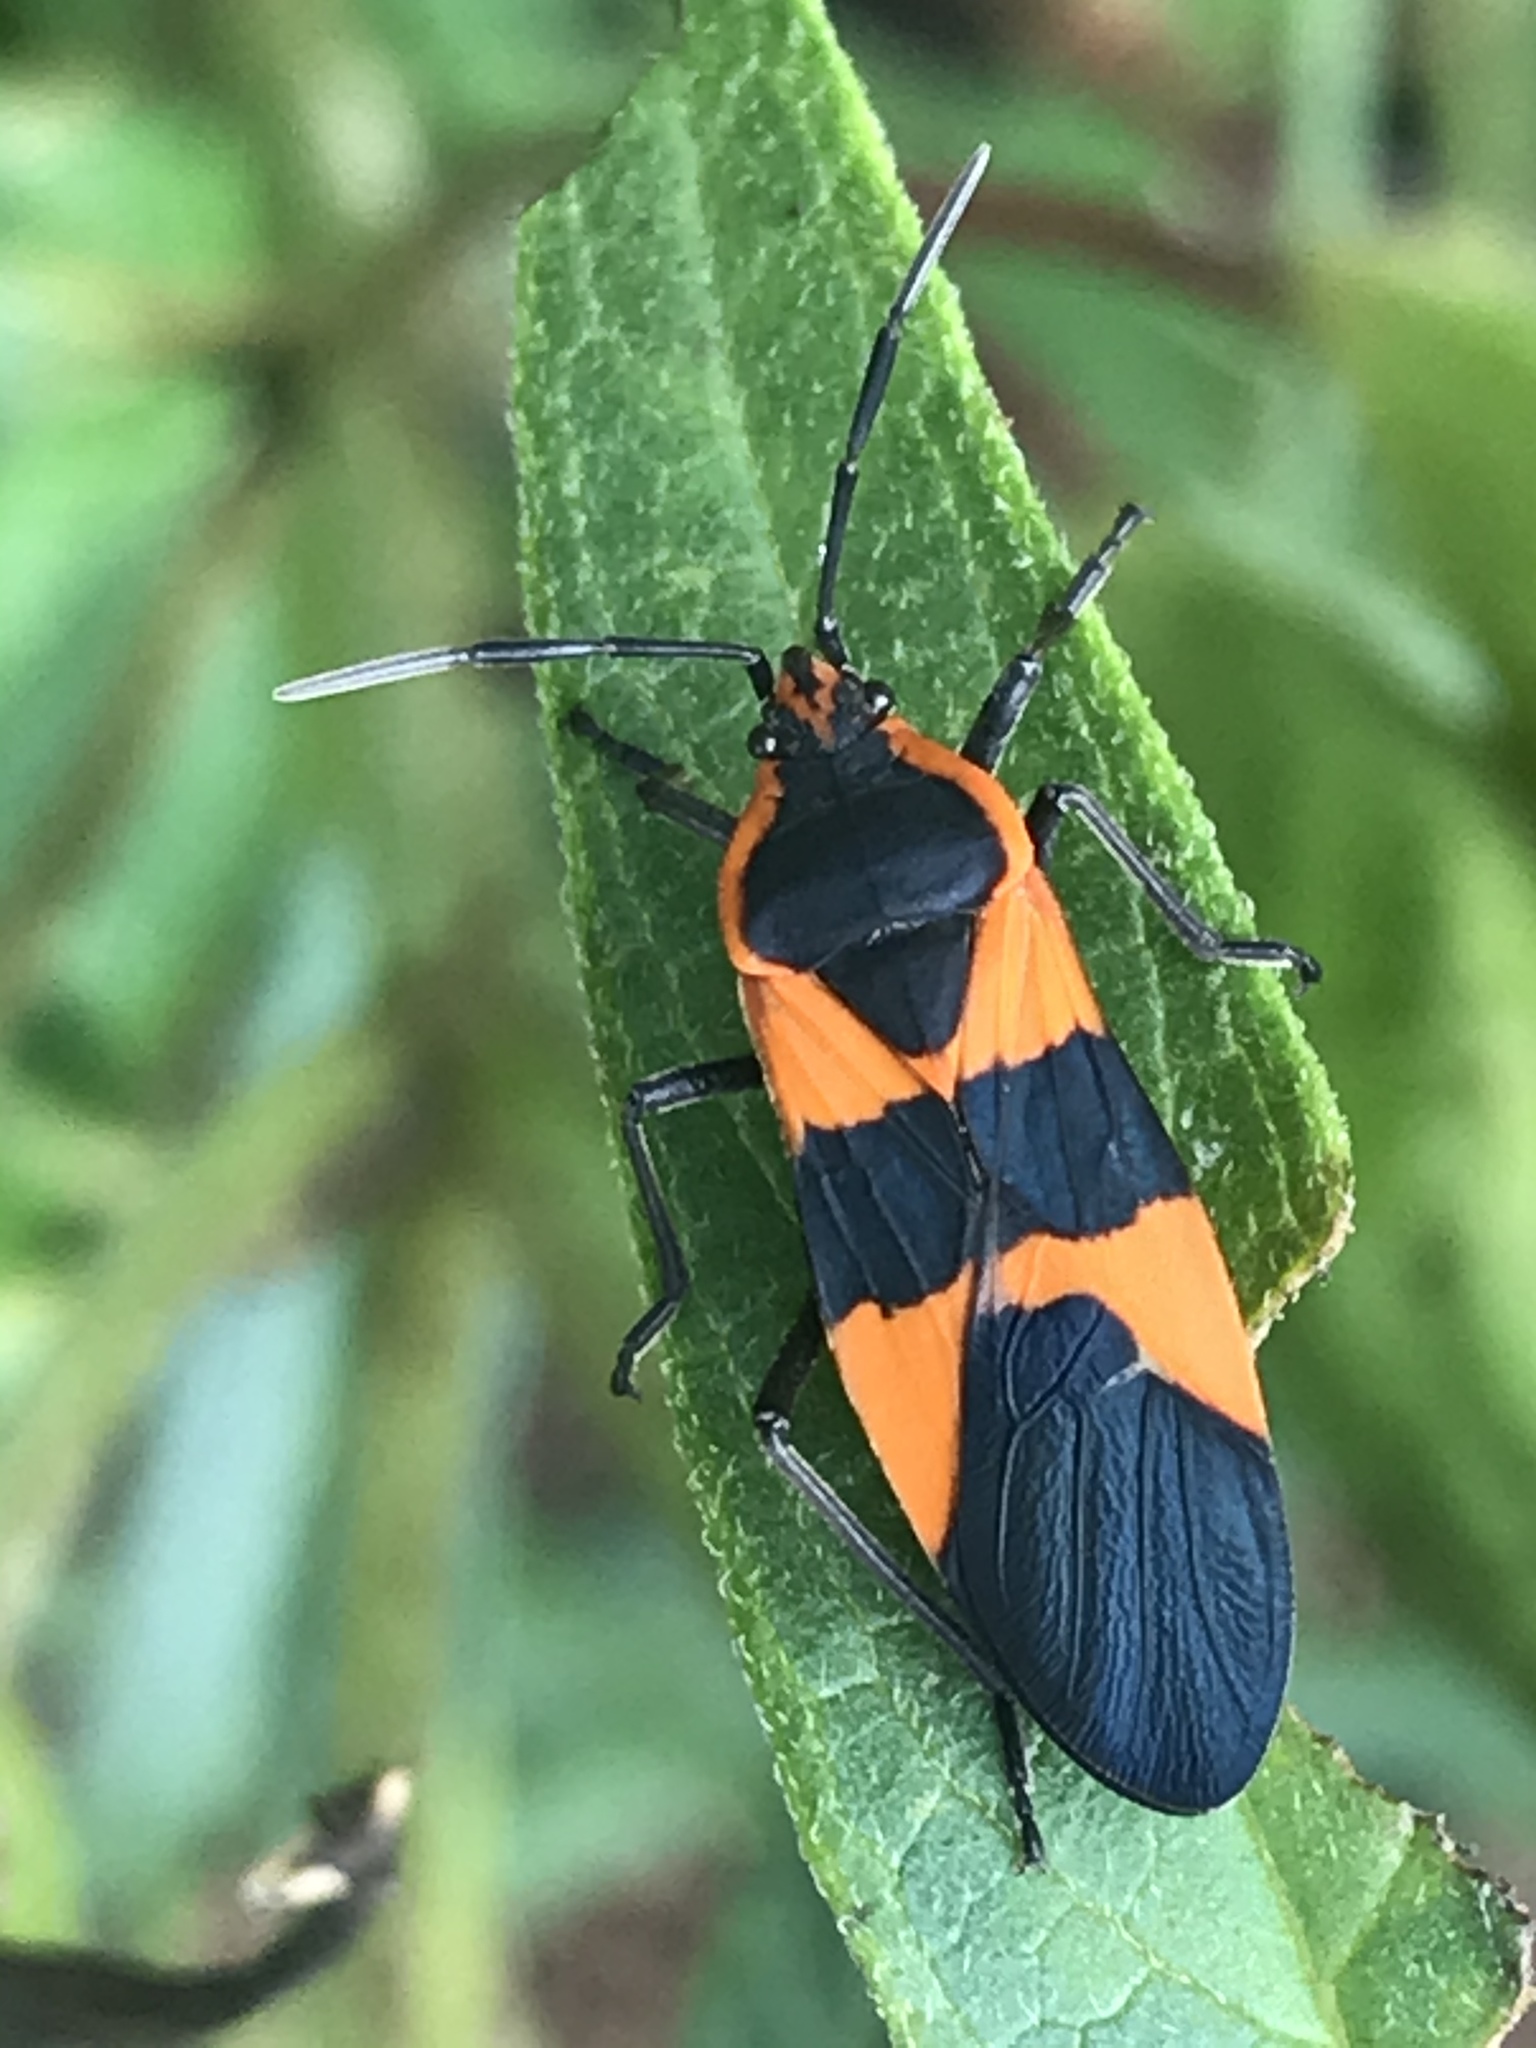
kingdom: Animalia
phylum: Arthropoda
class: Insecta
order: Hemiptera
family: Lygaeidae
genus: Oncopeltus
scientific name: Oncopeltus fasciatus
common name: Large milkweed bug
